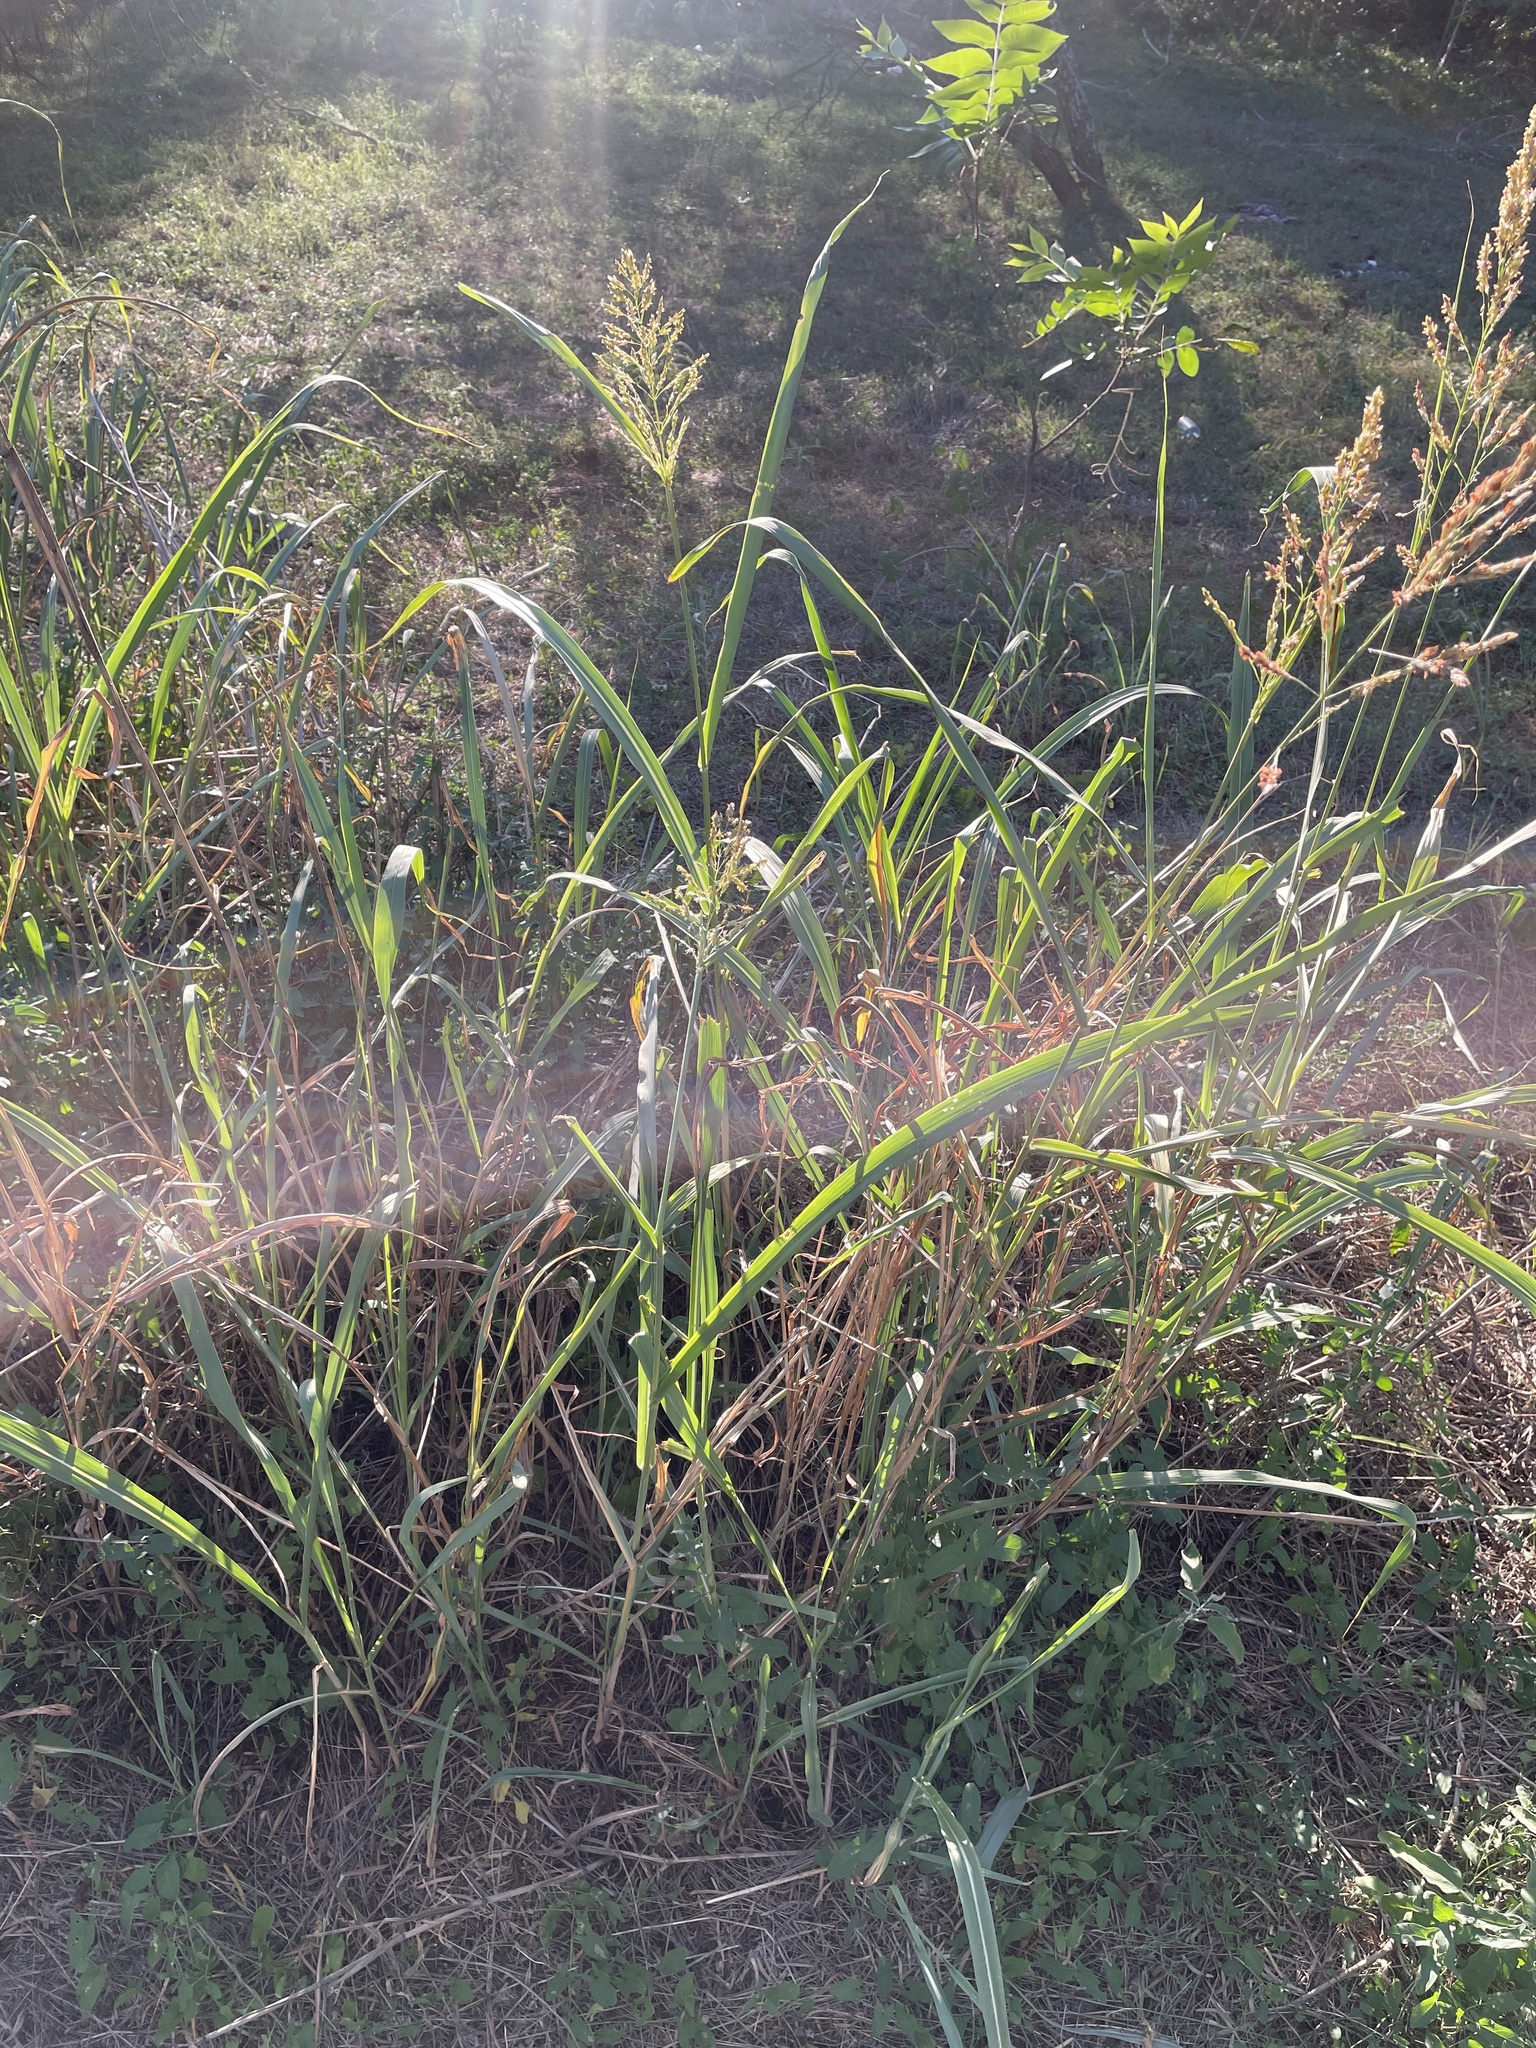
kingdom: Plantae
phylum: Tracheophyta
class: Liliopsida
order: Poales
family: Poaceae
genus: Sorghum
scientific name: Sorghum halepense
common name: Johnson-grass
